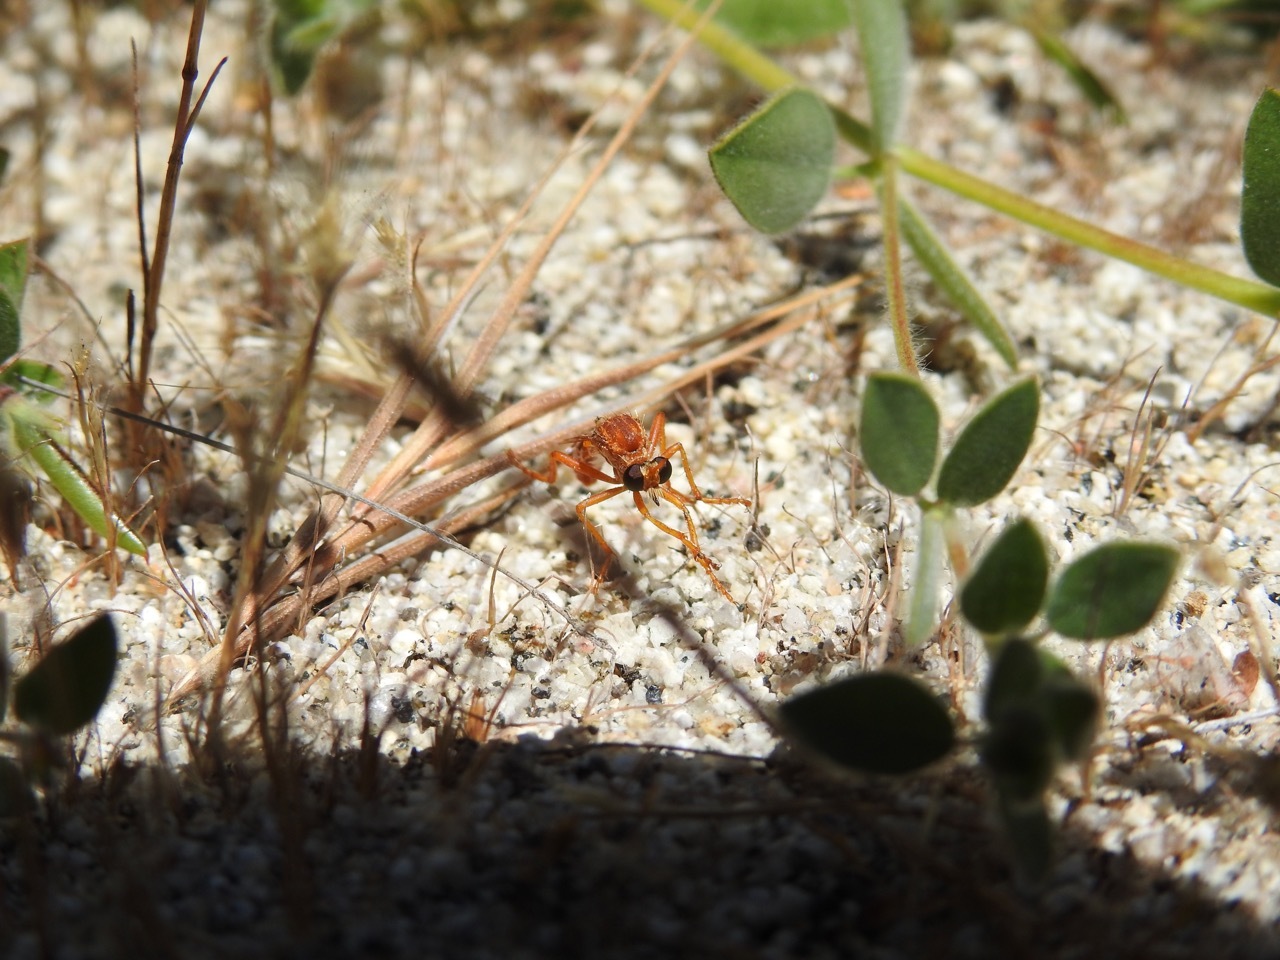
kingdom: Animalia
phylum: Arthropoda
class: Insecta
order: Diptera
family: Asilidae
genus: Saropogon
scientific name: Saropogon luteus
